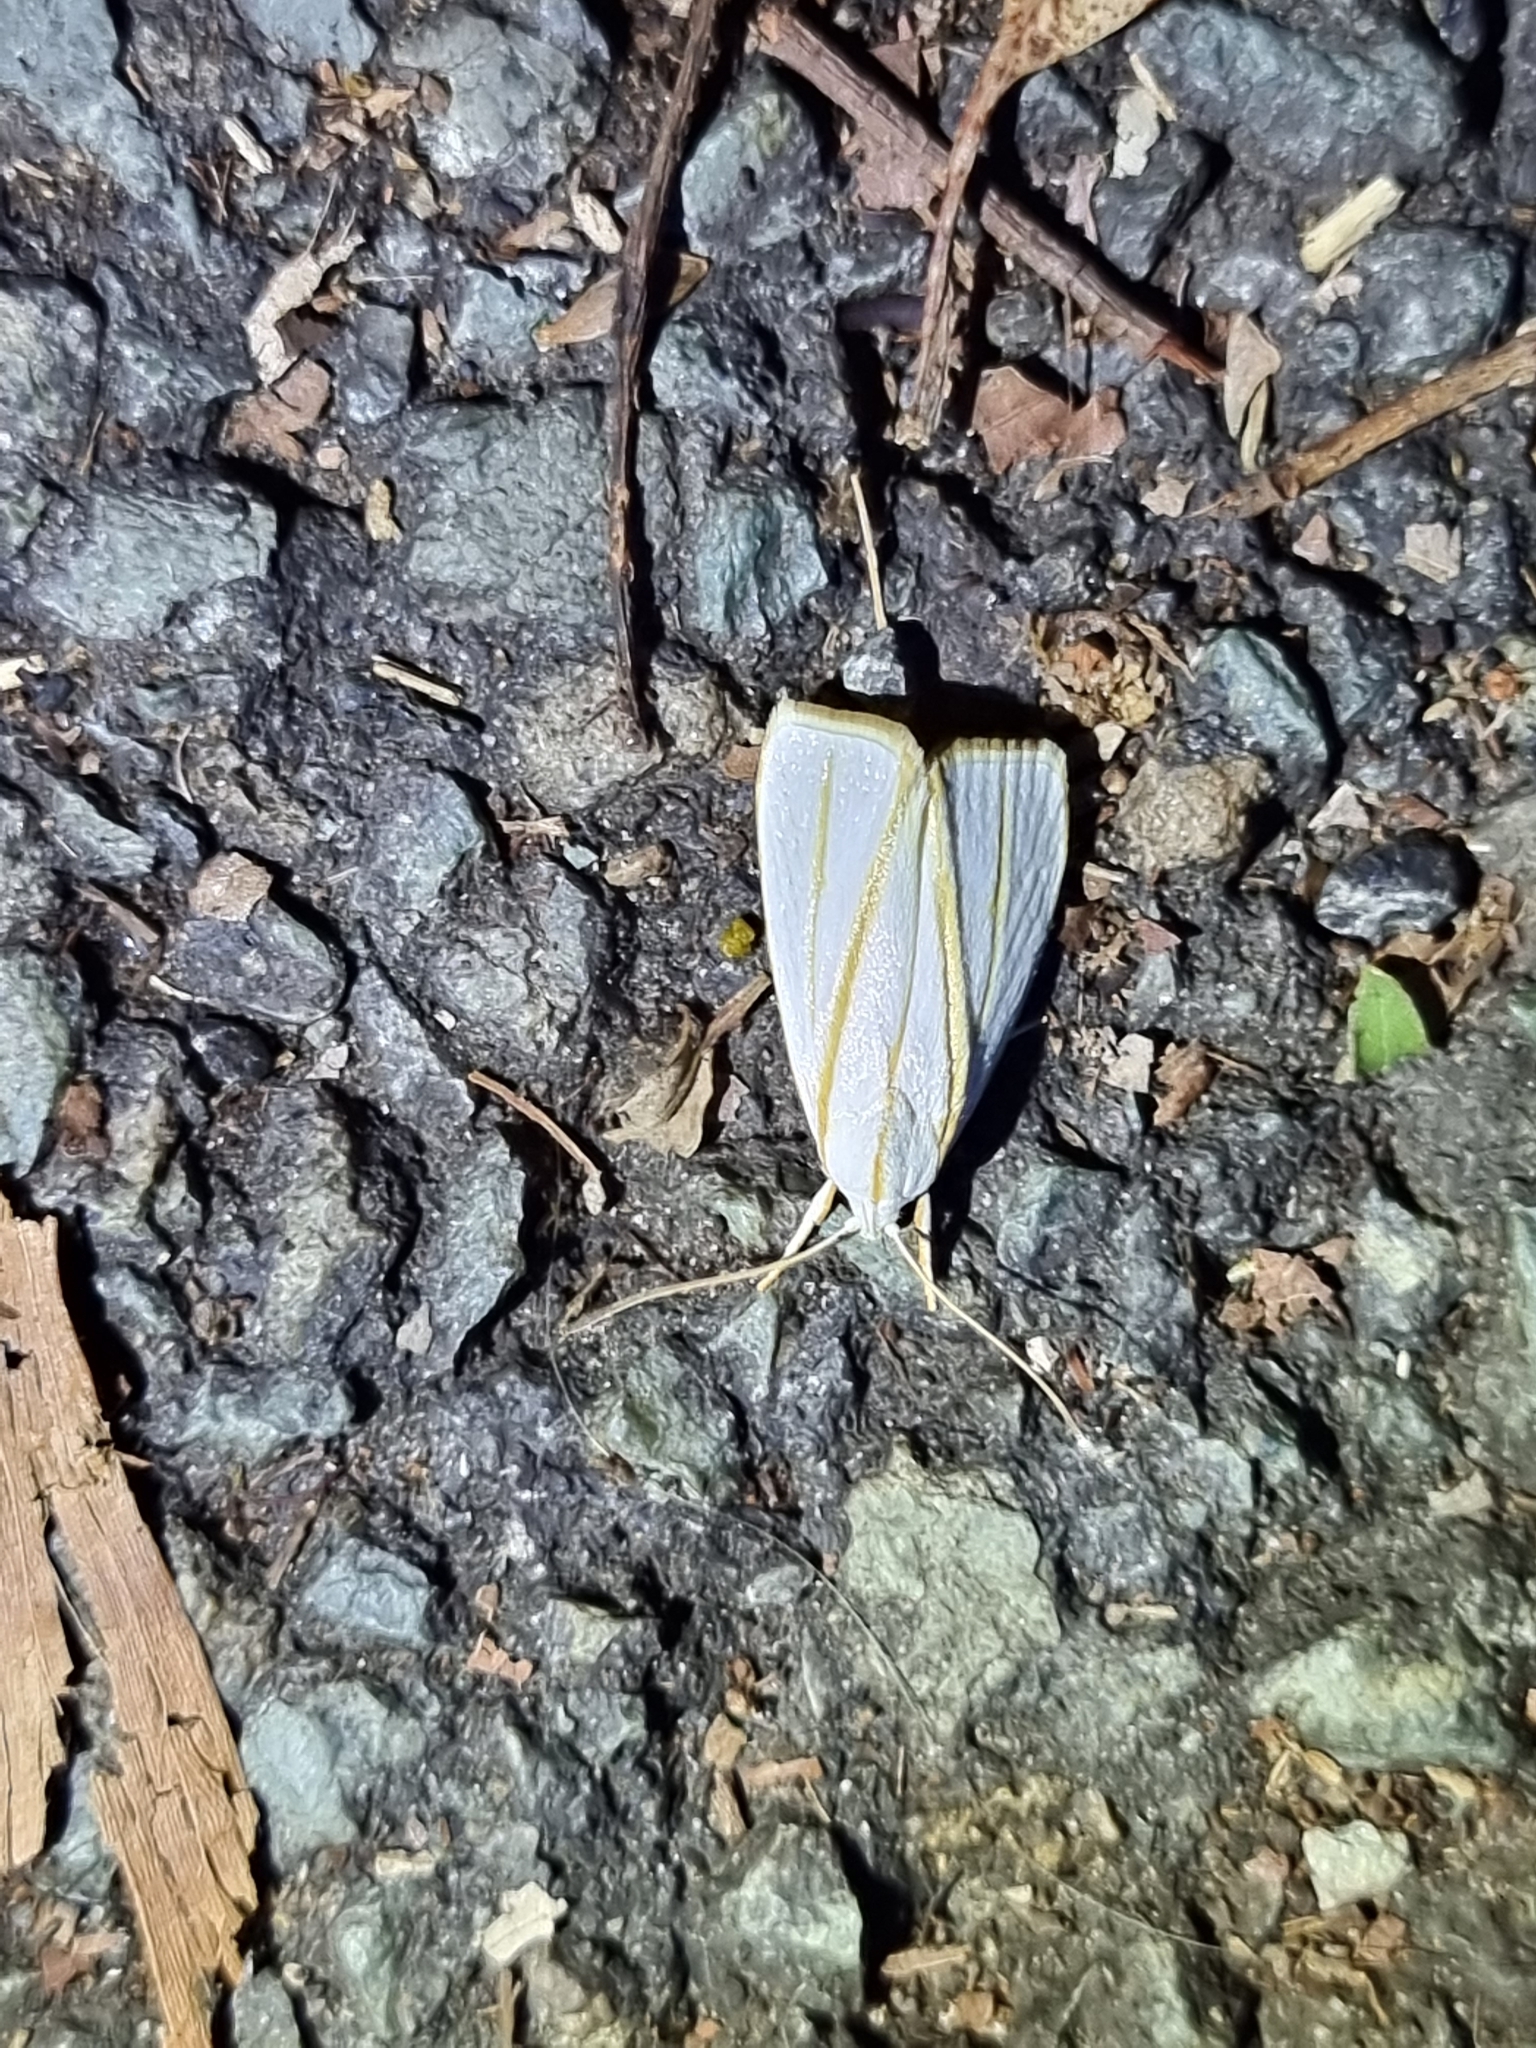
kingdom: Animalia
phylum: Arthropoda
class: Insecta
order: Lepidoptera
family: Xyloryctidae
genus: Cryptophasa
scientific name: Cryptophasa flavolineata
